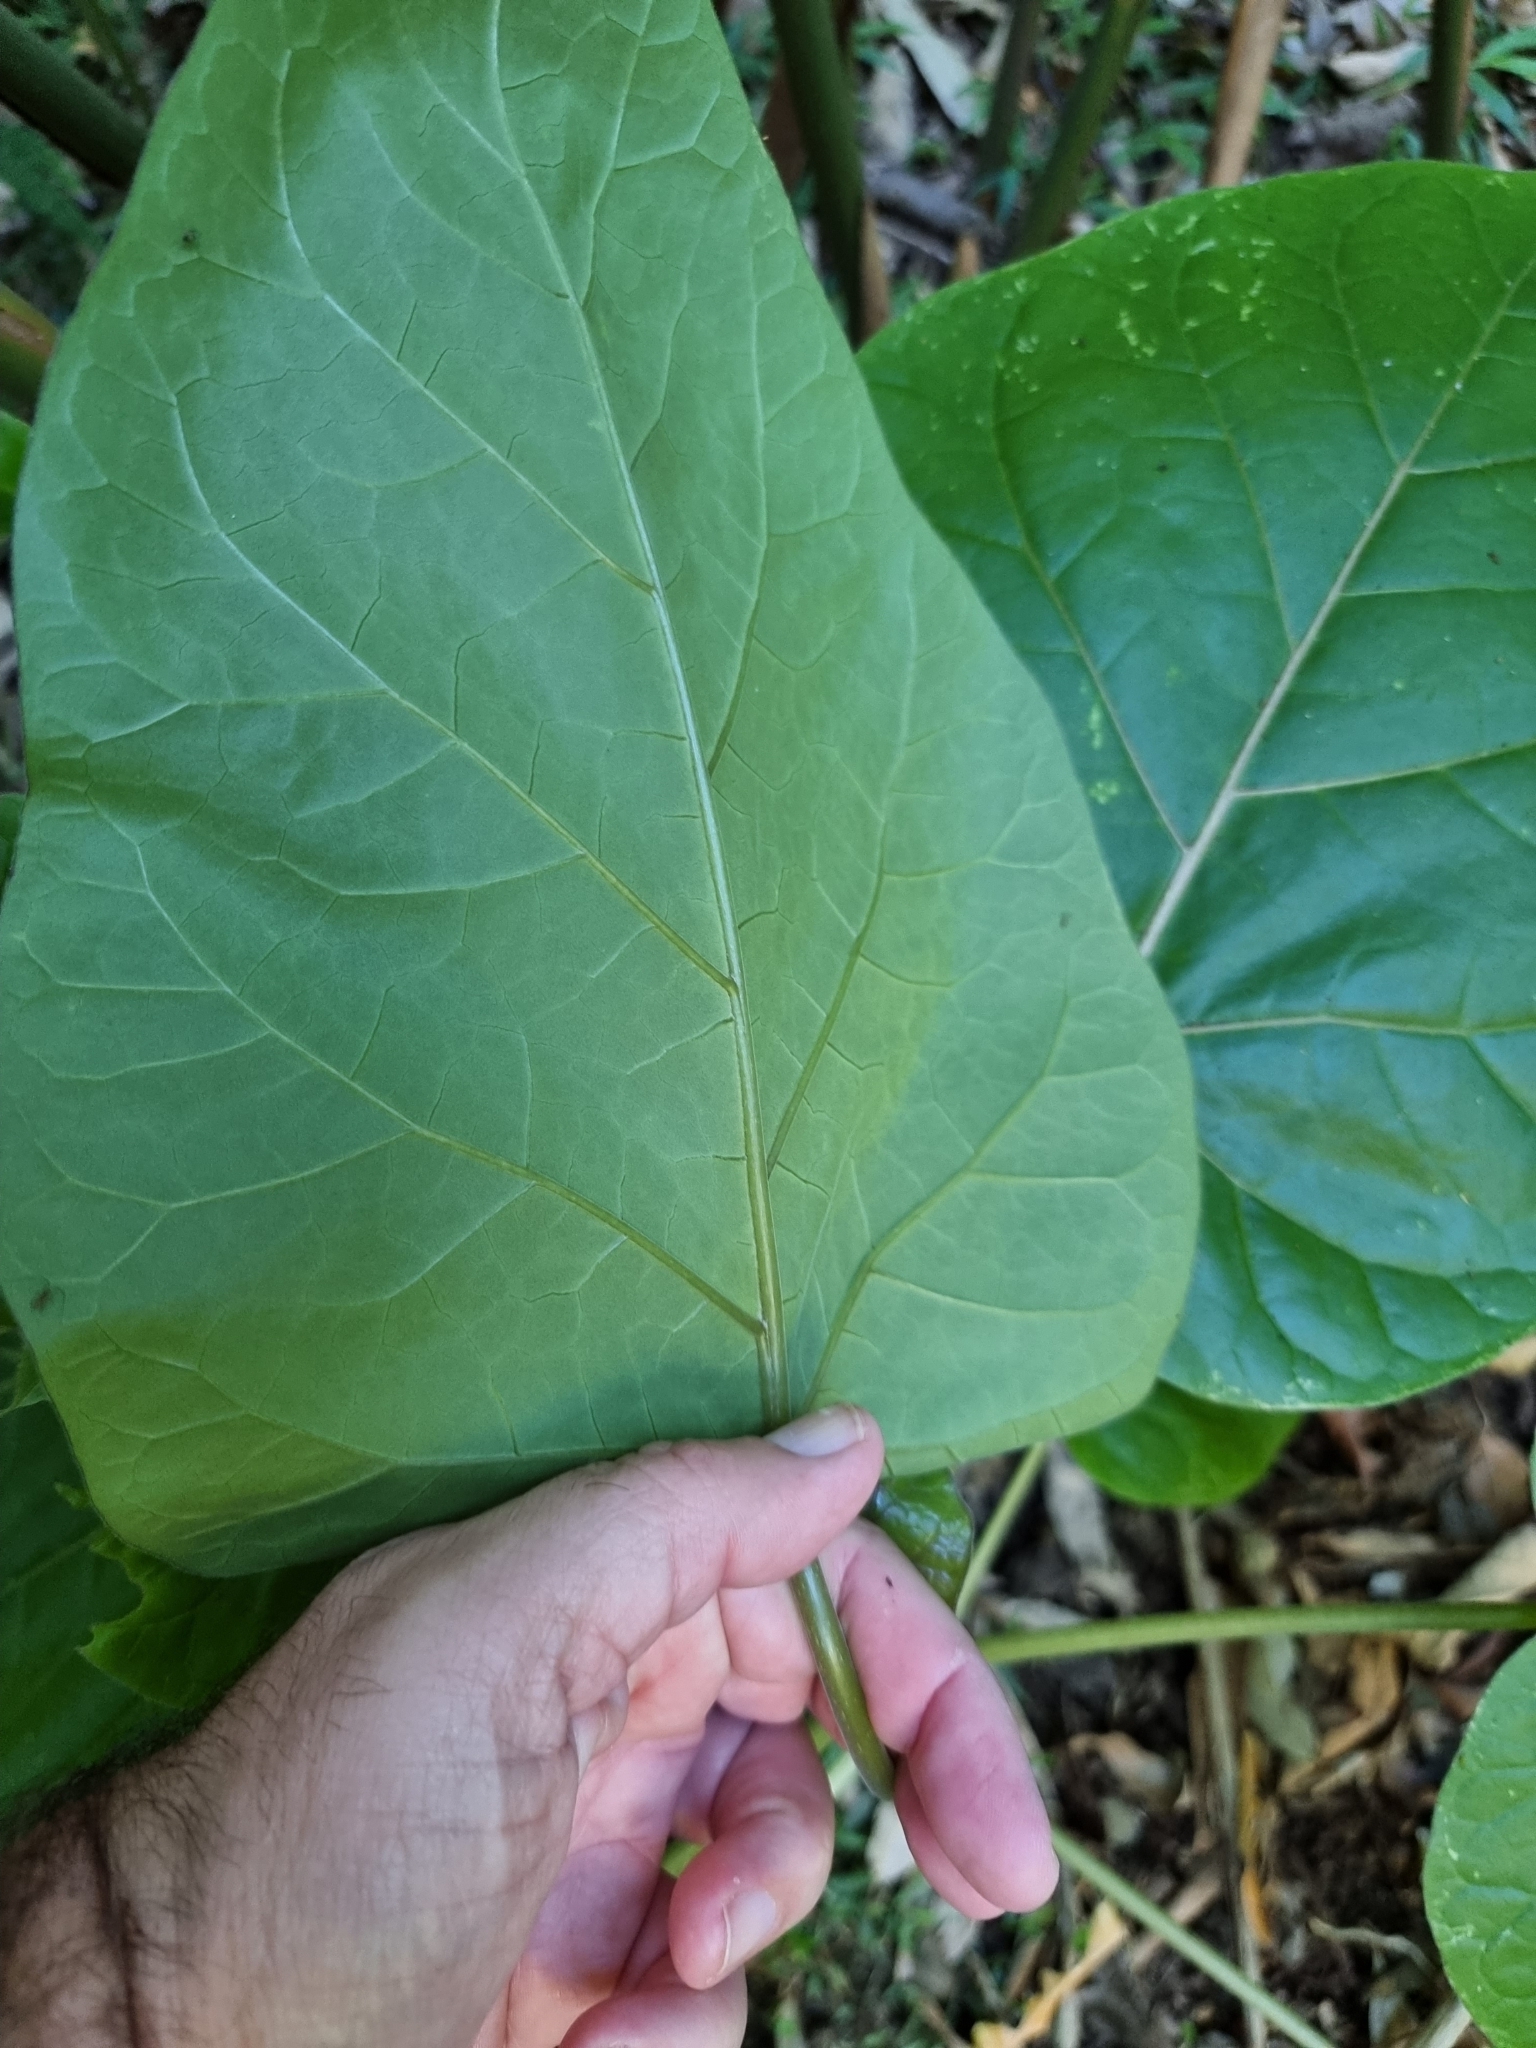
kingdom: Plantae
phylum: Tracheophyta
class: Magnoliopsida
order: Solanales
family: Solanaceae
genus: Solanum
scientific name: Solanum betaceum
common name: Tamarillo
